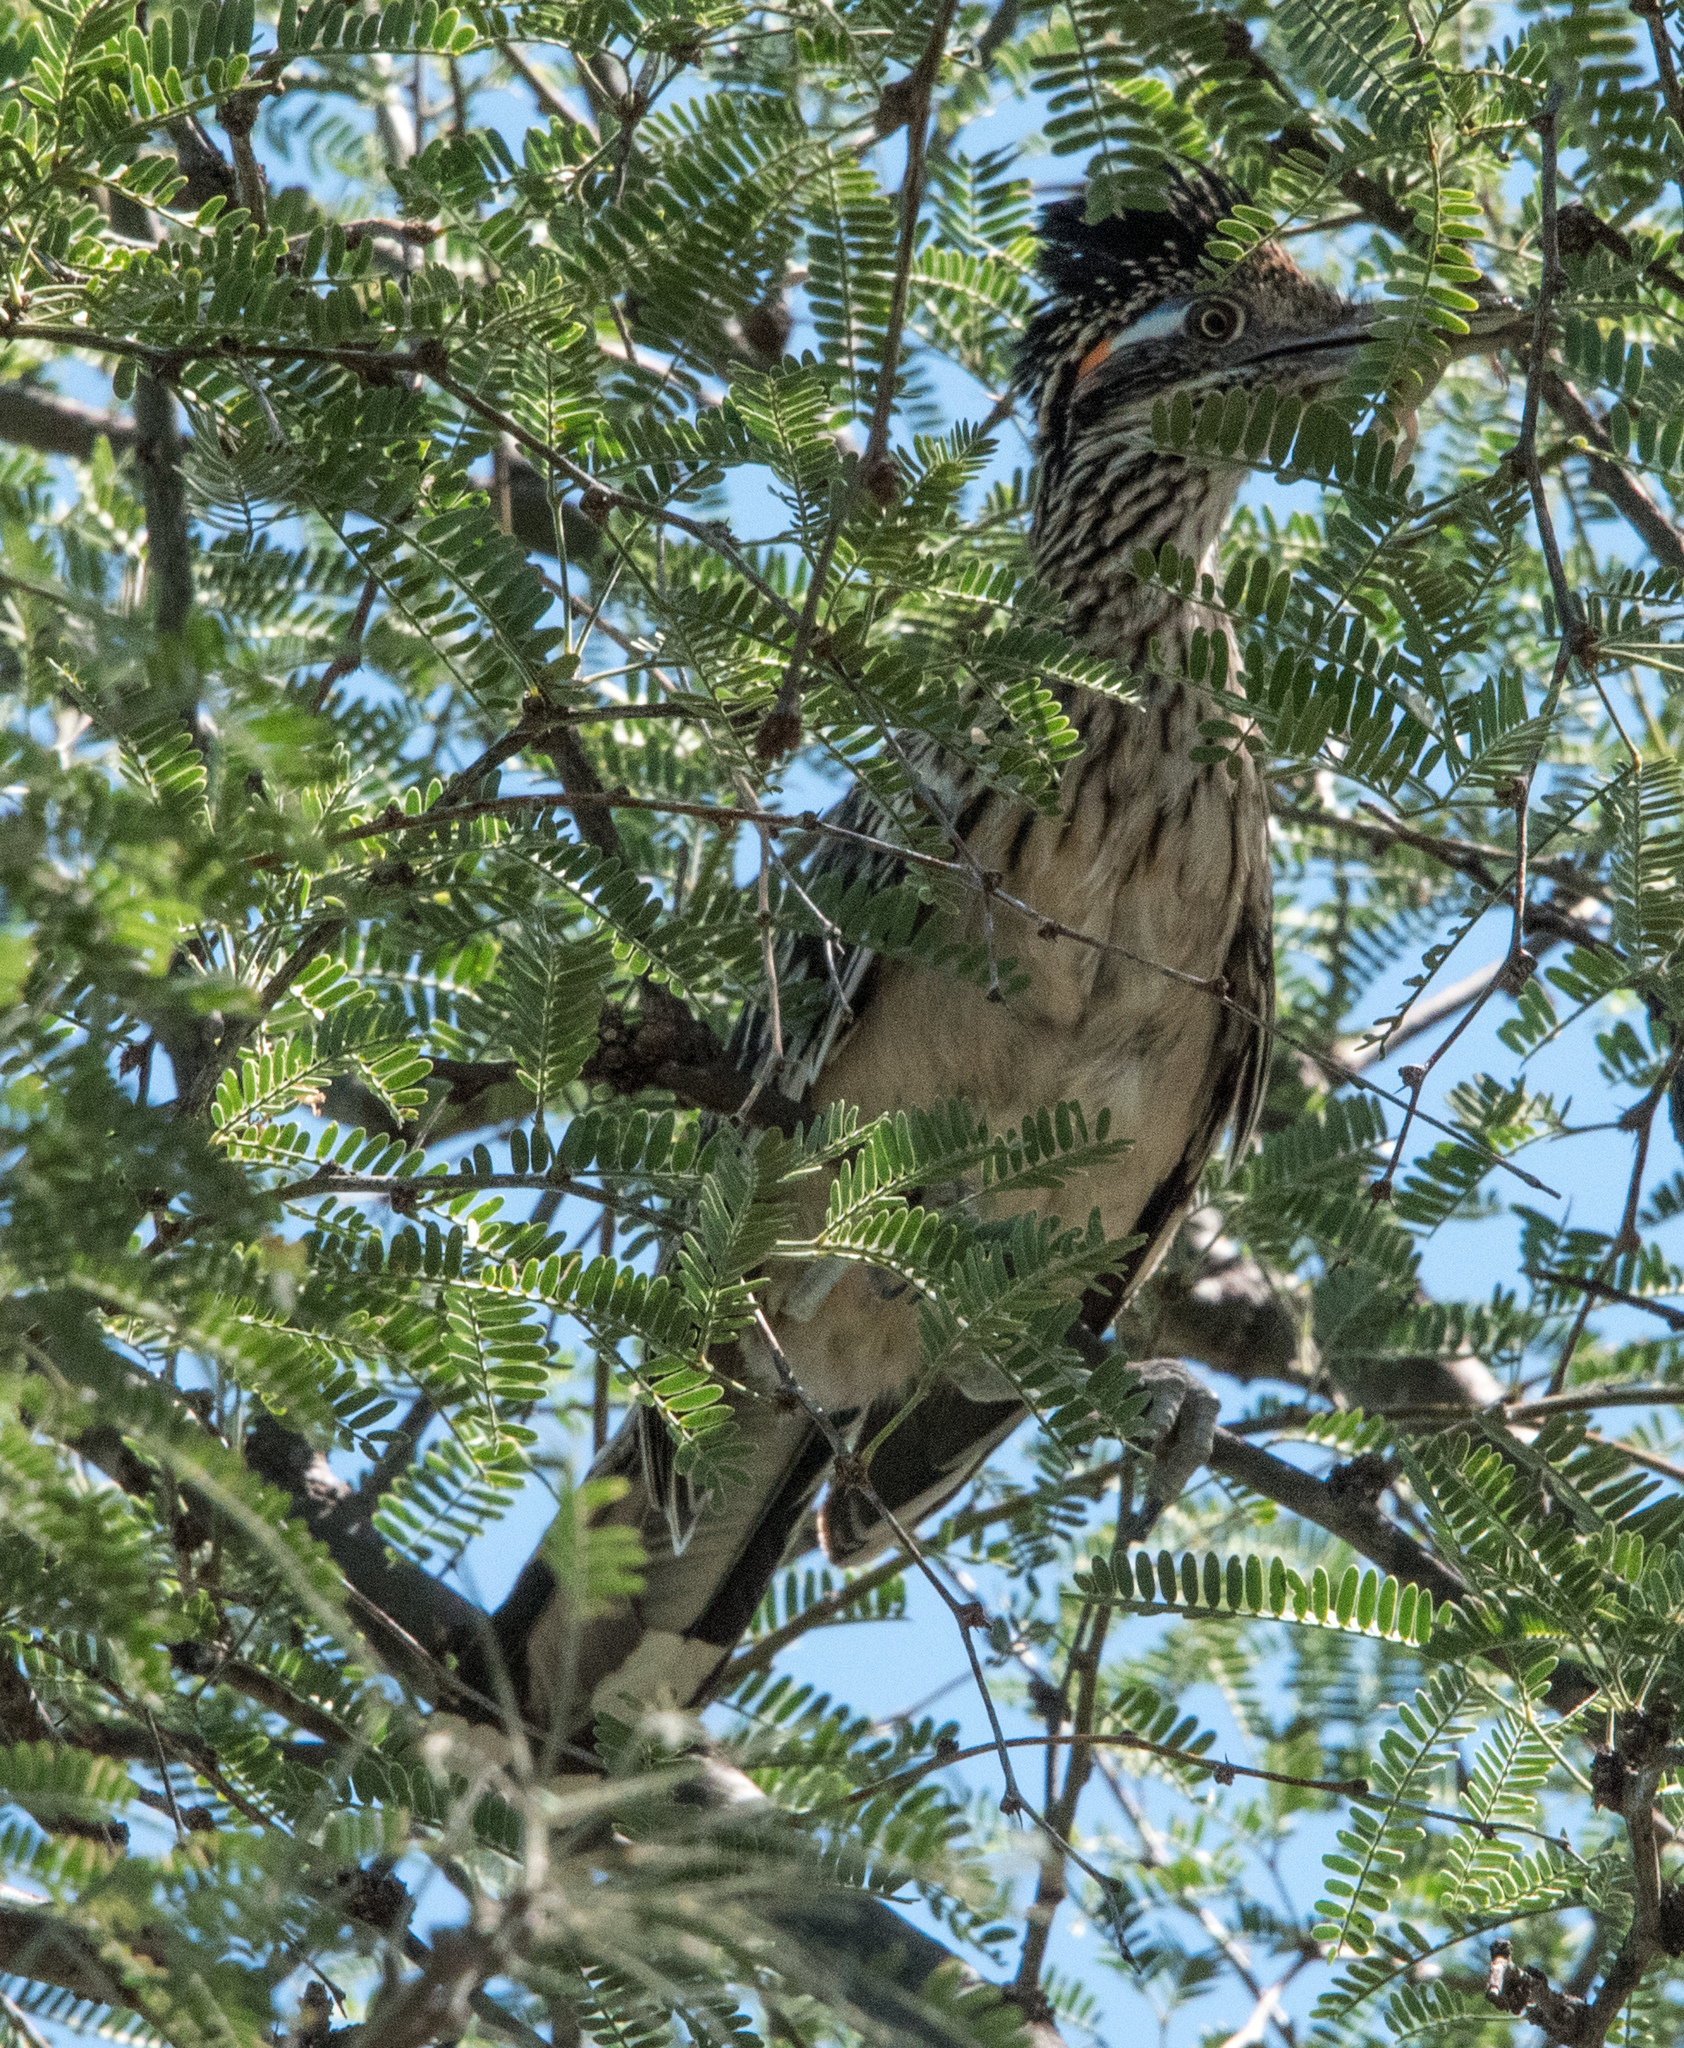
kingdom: Animalia
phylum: Chordata
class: Aves
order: Cuculiformes
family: Cuculidae
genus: Geococcyx
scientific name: Geococcyx californianus
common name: Greater roadrunner
